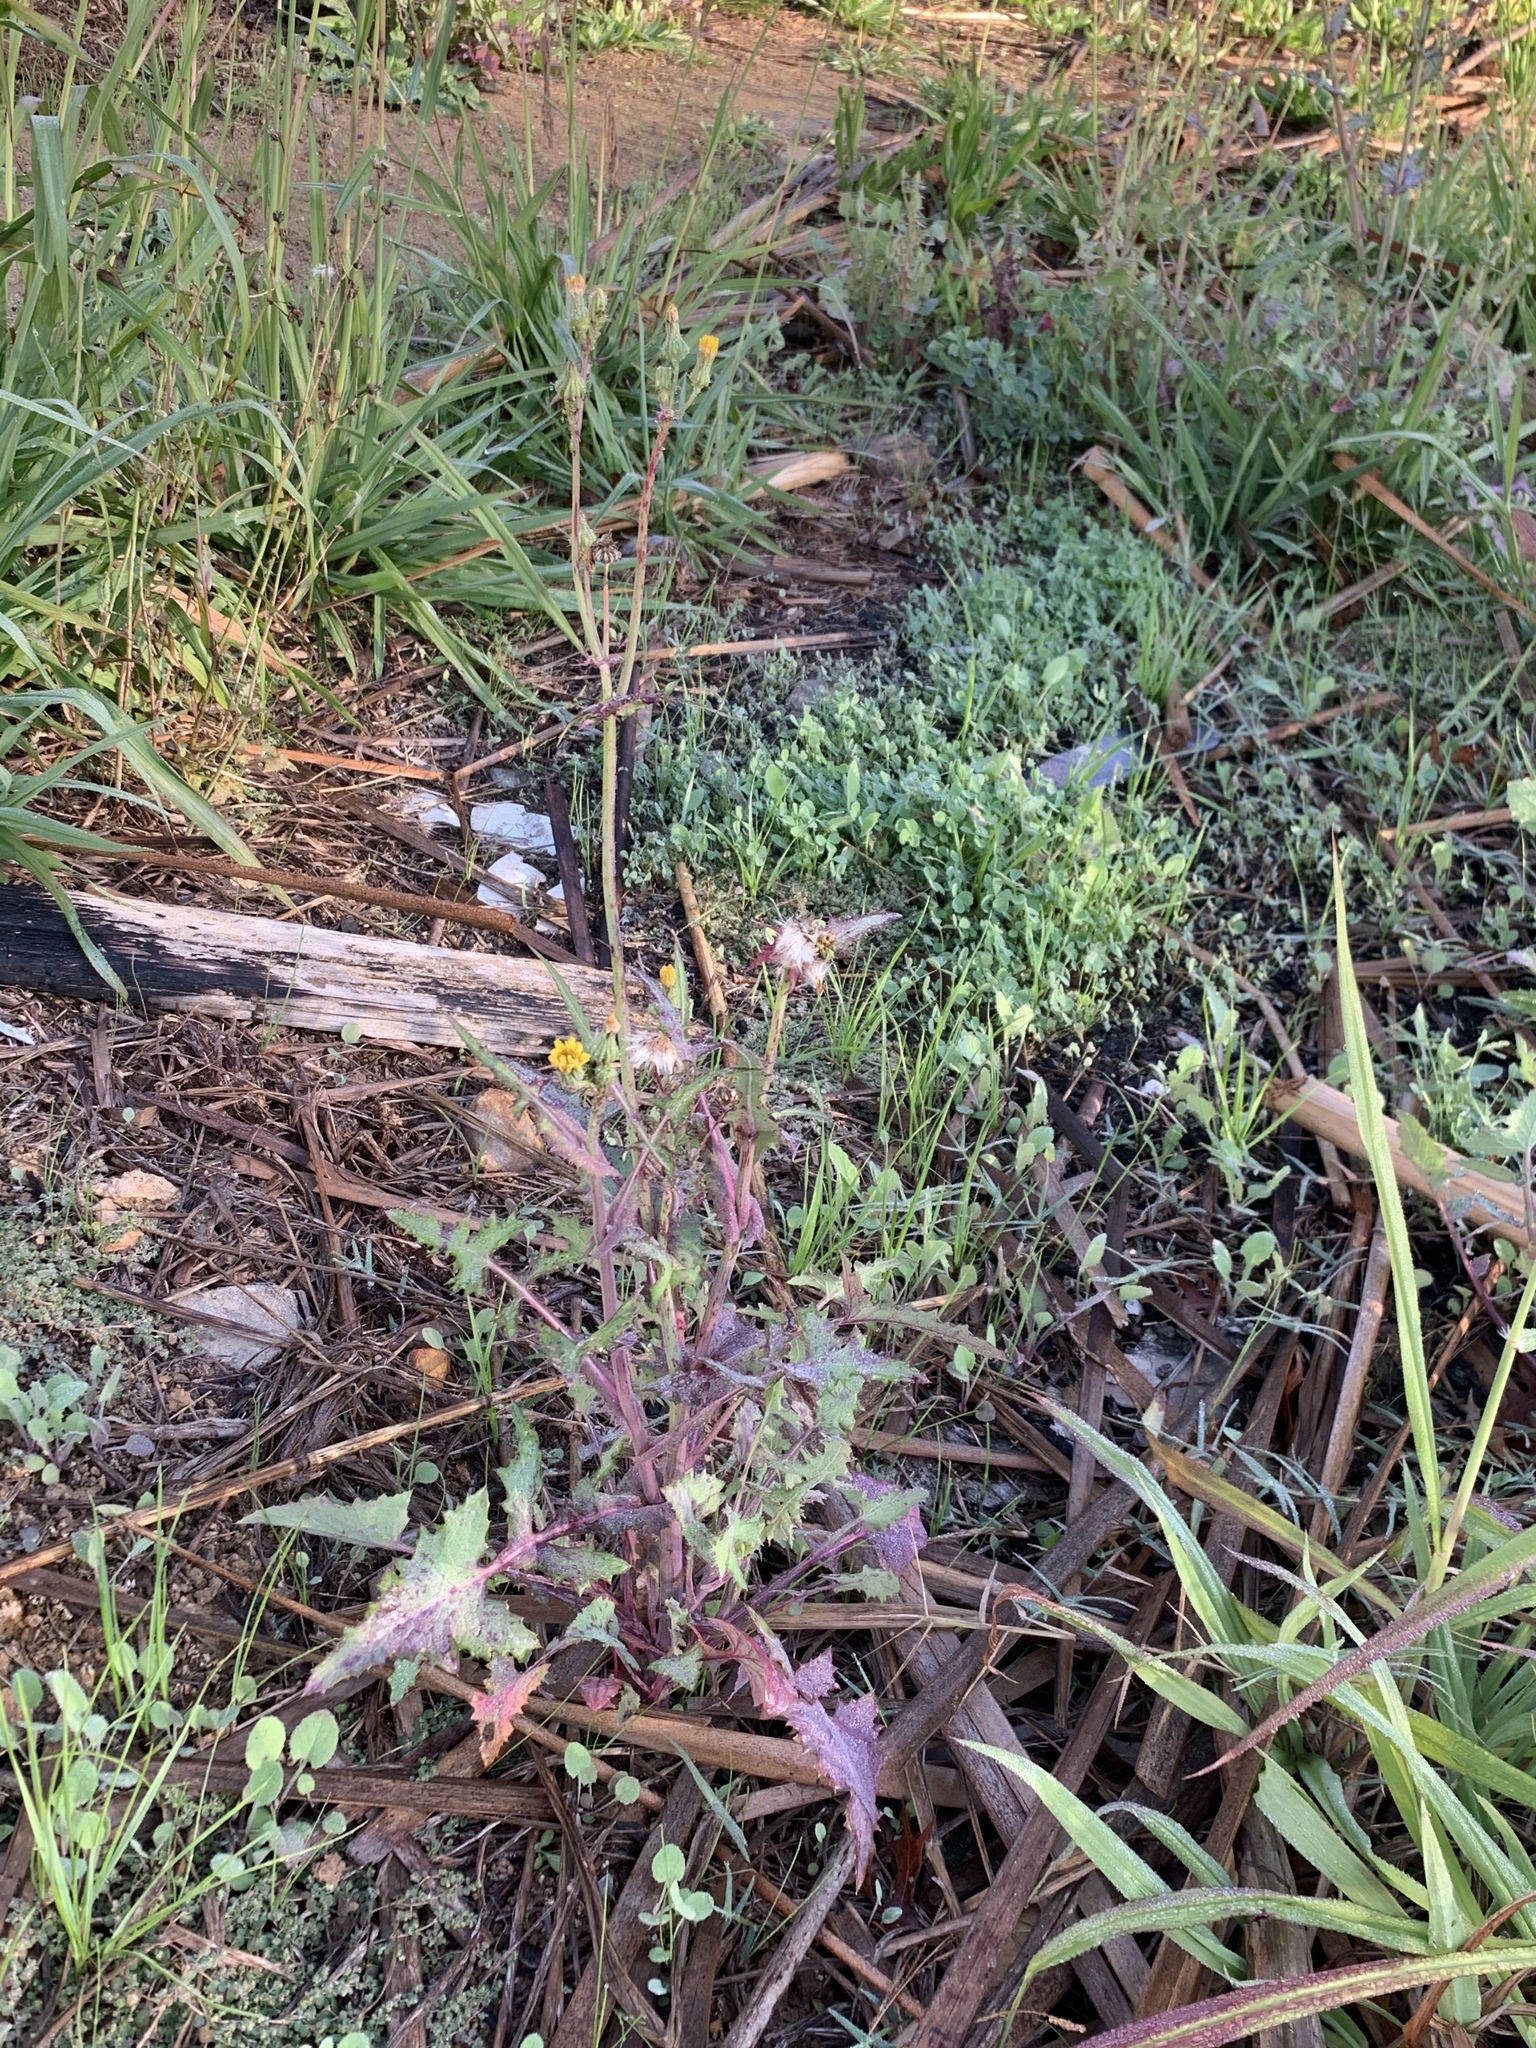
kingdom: Plantae
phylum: Tracheophyta
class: Magnoliopsida
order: Asterales
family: Asteraceae
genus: Sonchus
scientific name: Sonchus oleraceus
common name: Common sowthistle
